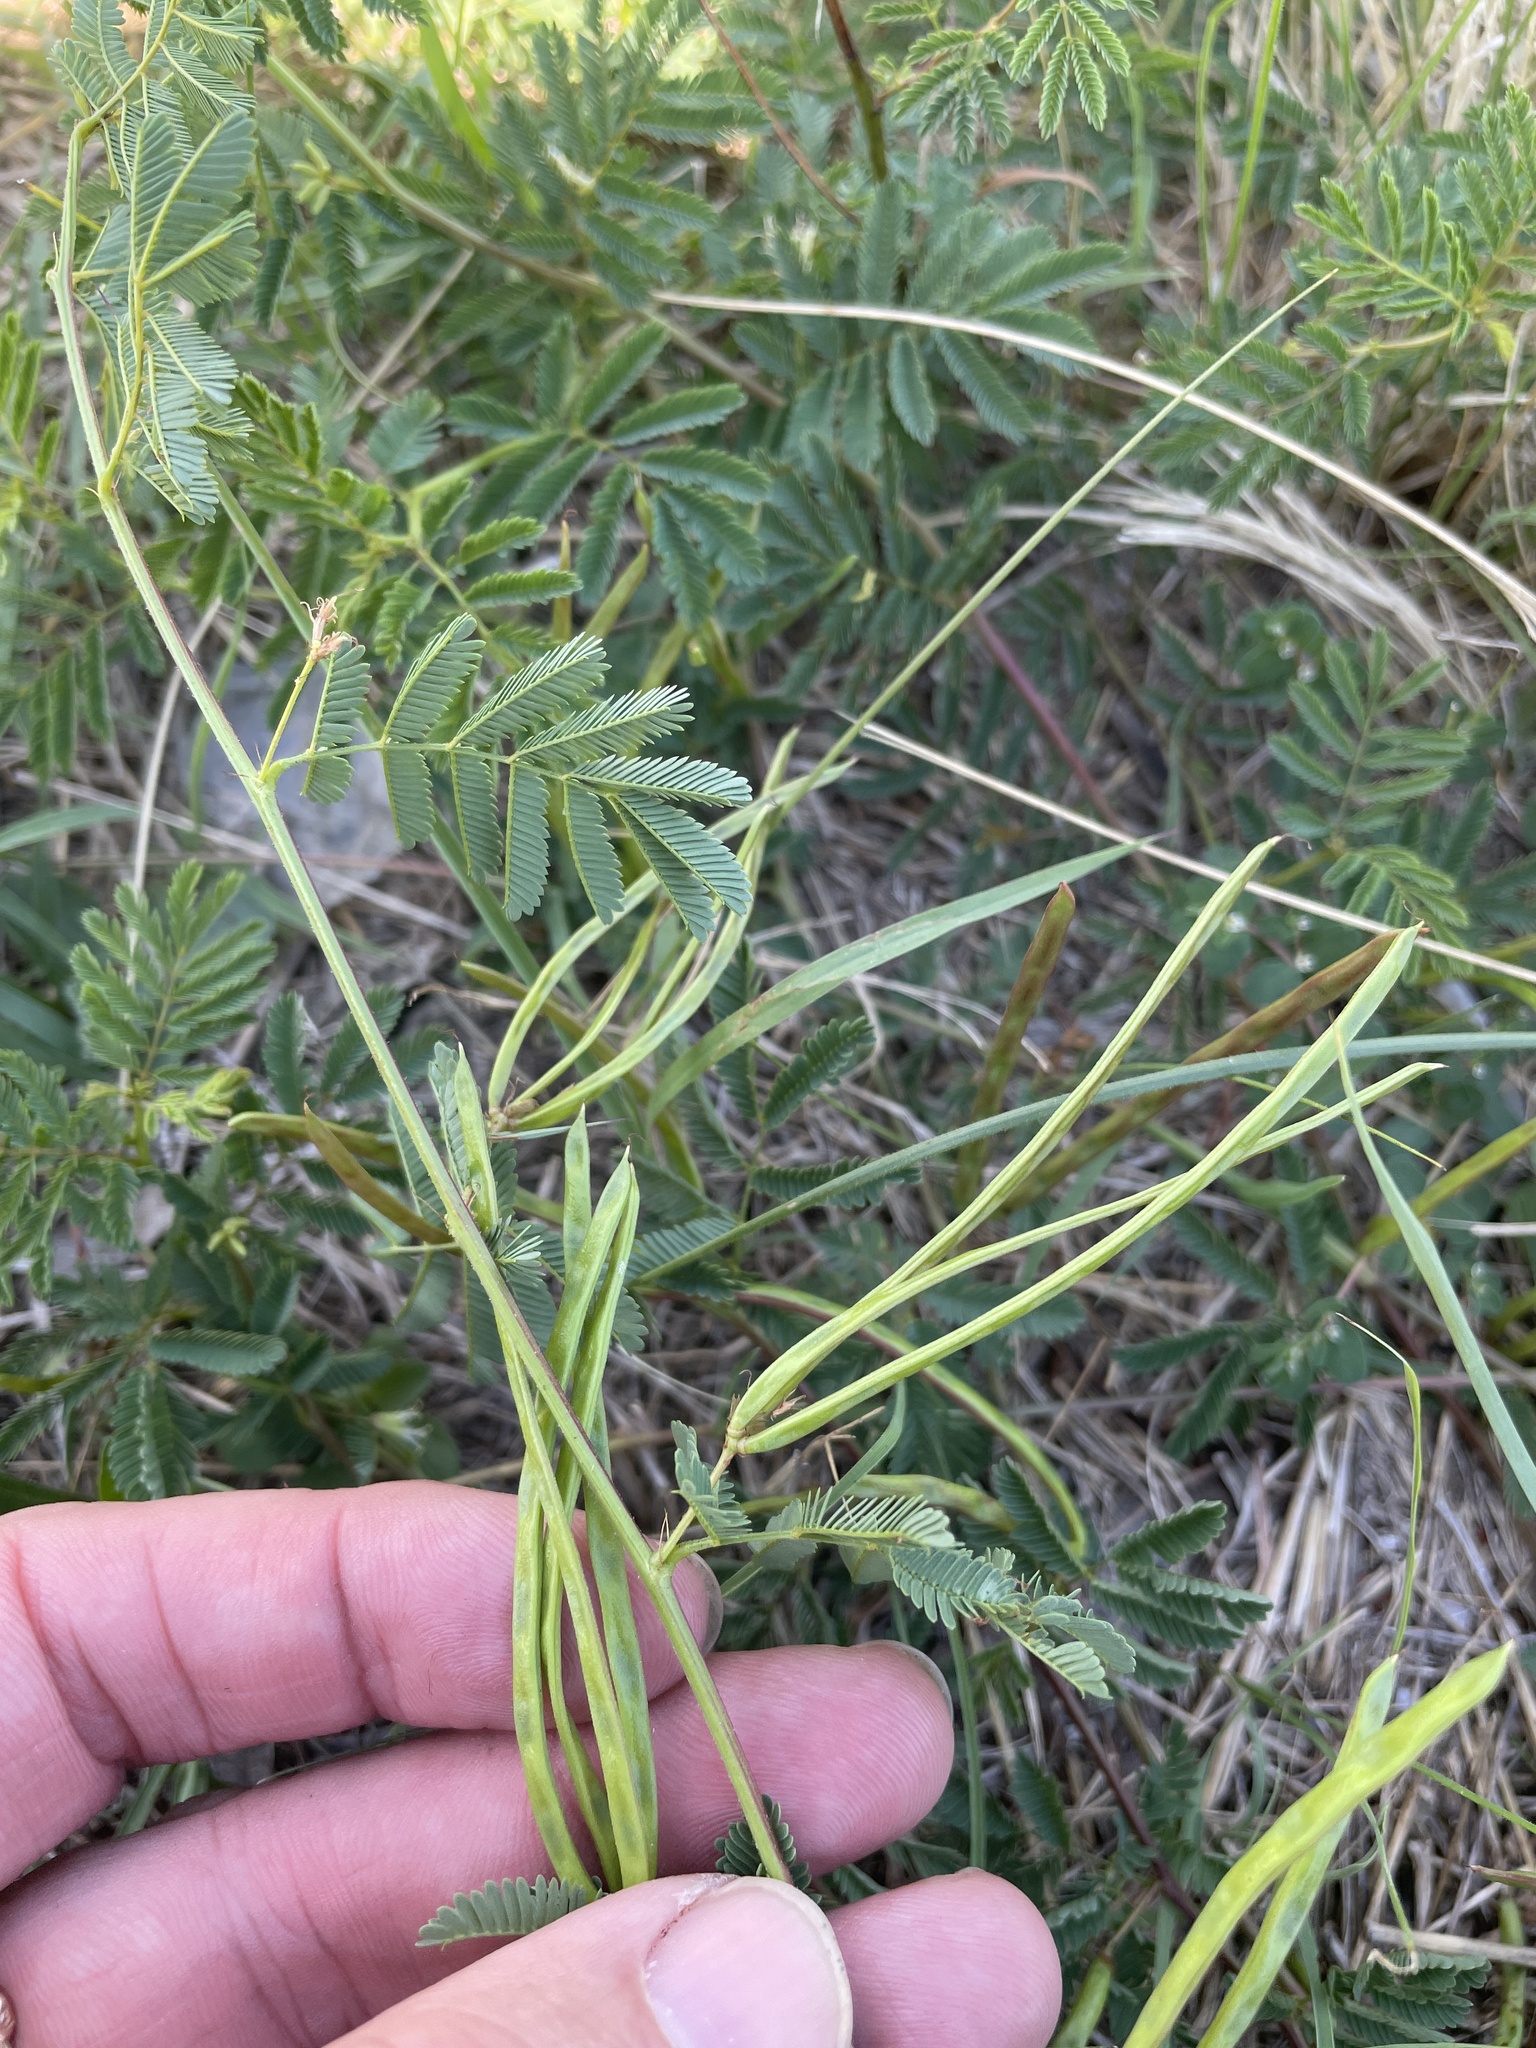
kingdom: Plantae
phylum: Tracheophyta
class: Magnoliopsida
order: Fabales
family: Fabaceae
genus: Desmanthus
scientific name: Desmanthus leptolobus
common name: Prairie-mimosa
